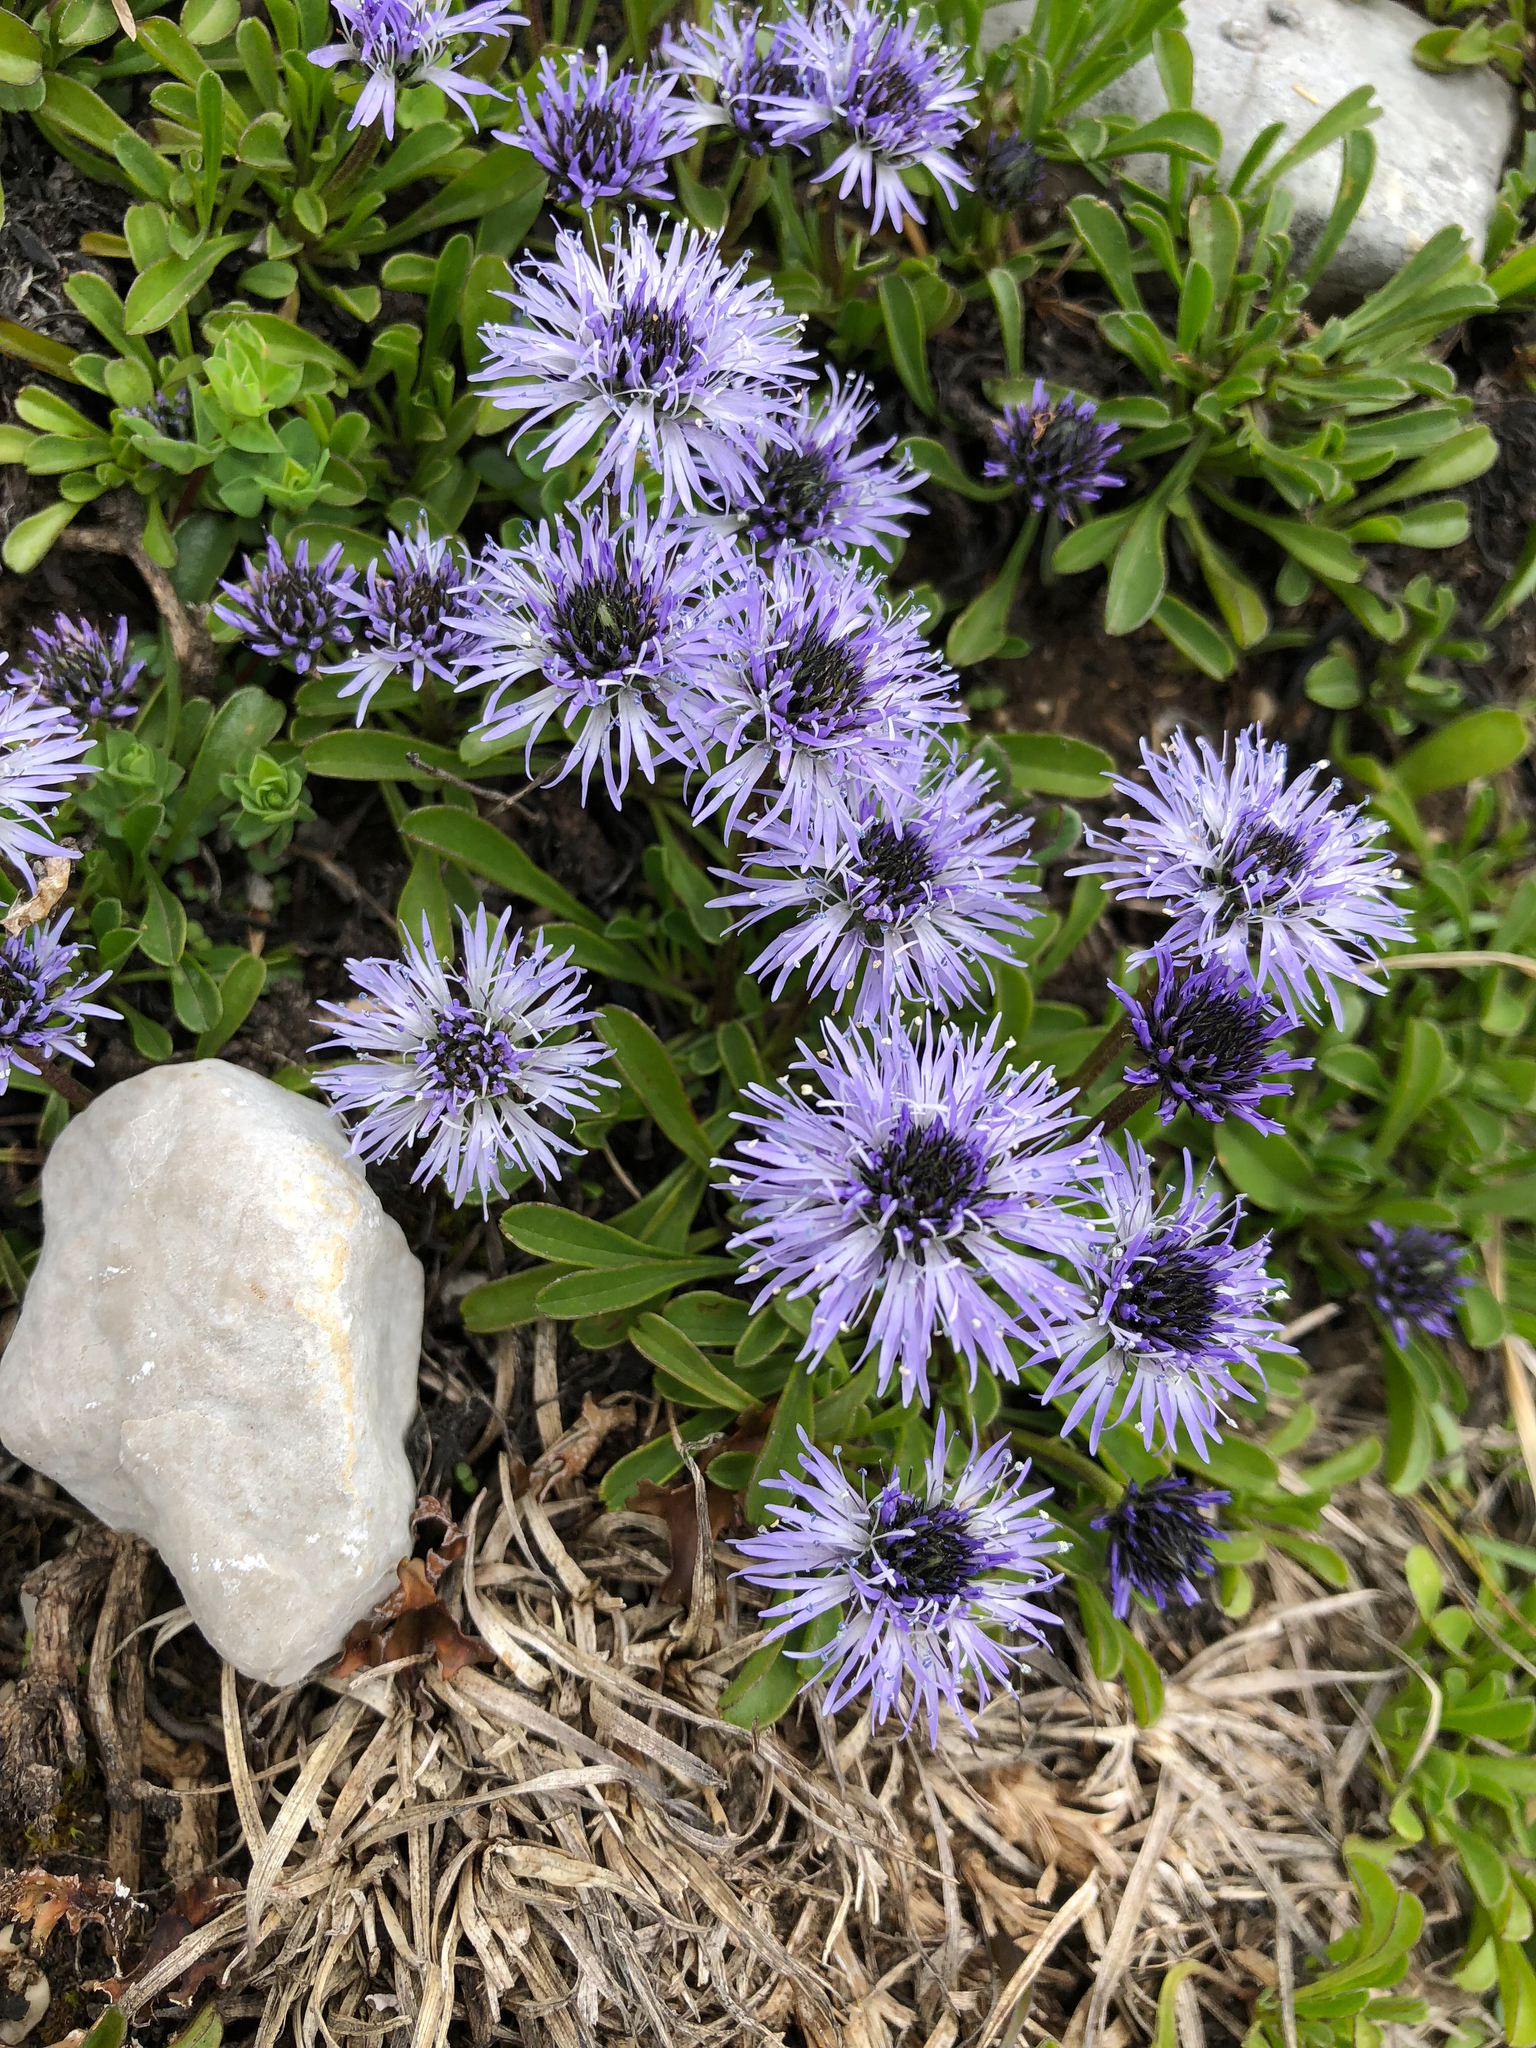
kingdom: Plantae
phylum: Tracheophyta
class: Magnoliopsida
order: Lamiales
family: Plantaginaceae
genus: Globularia
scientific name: Globularia cordifolia
